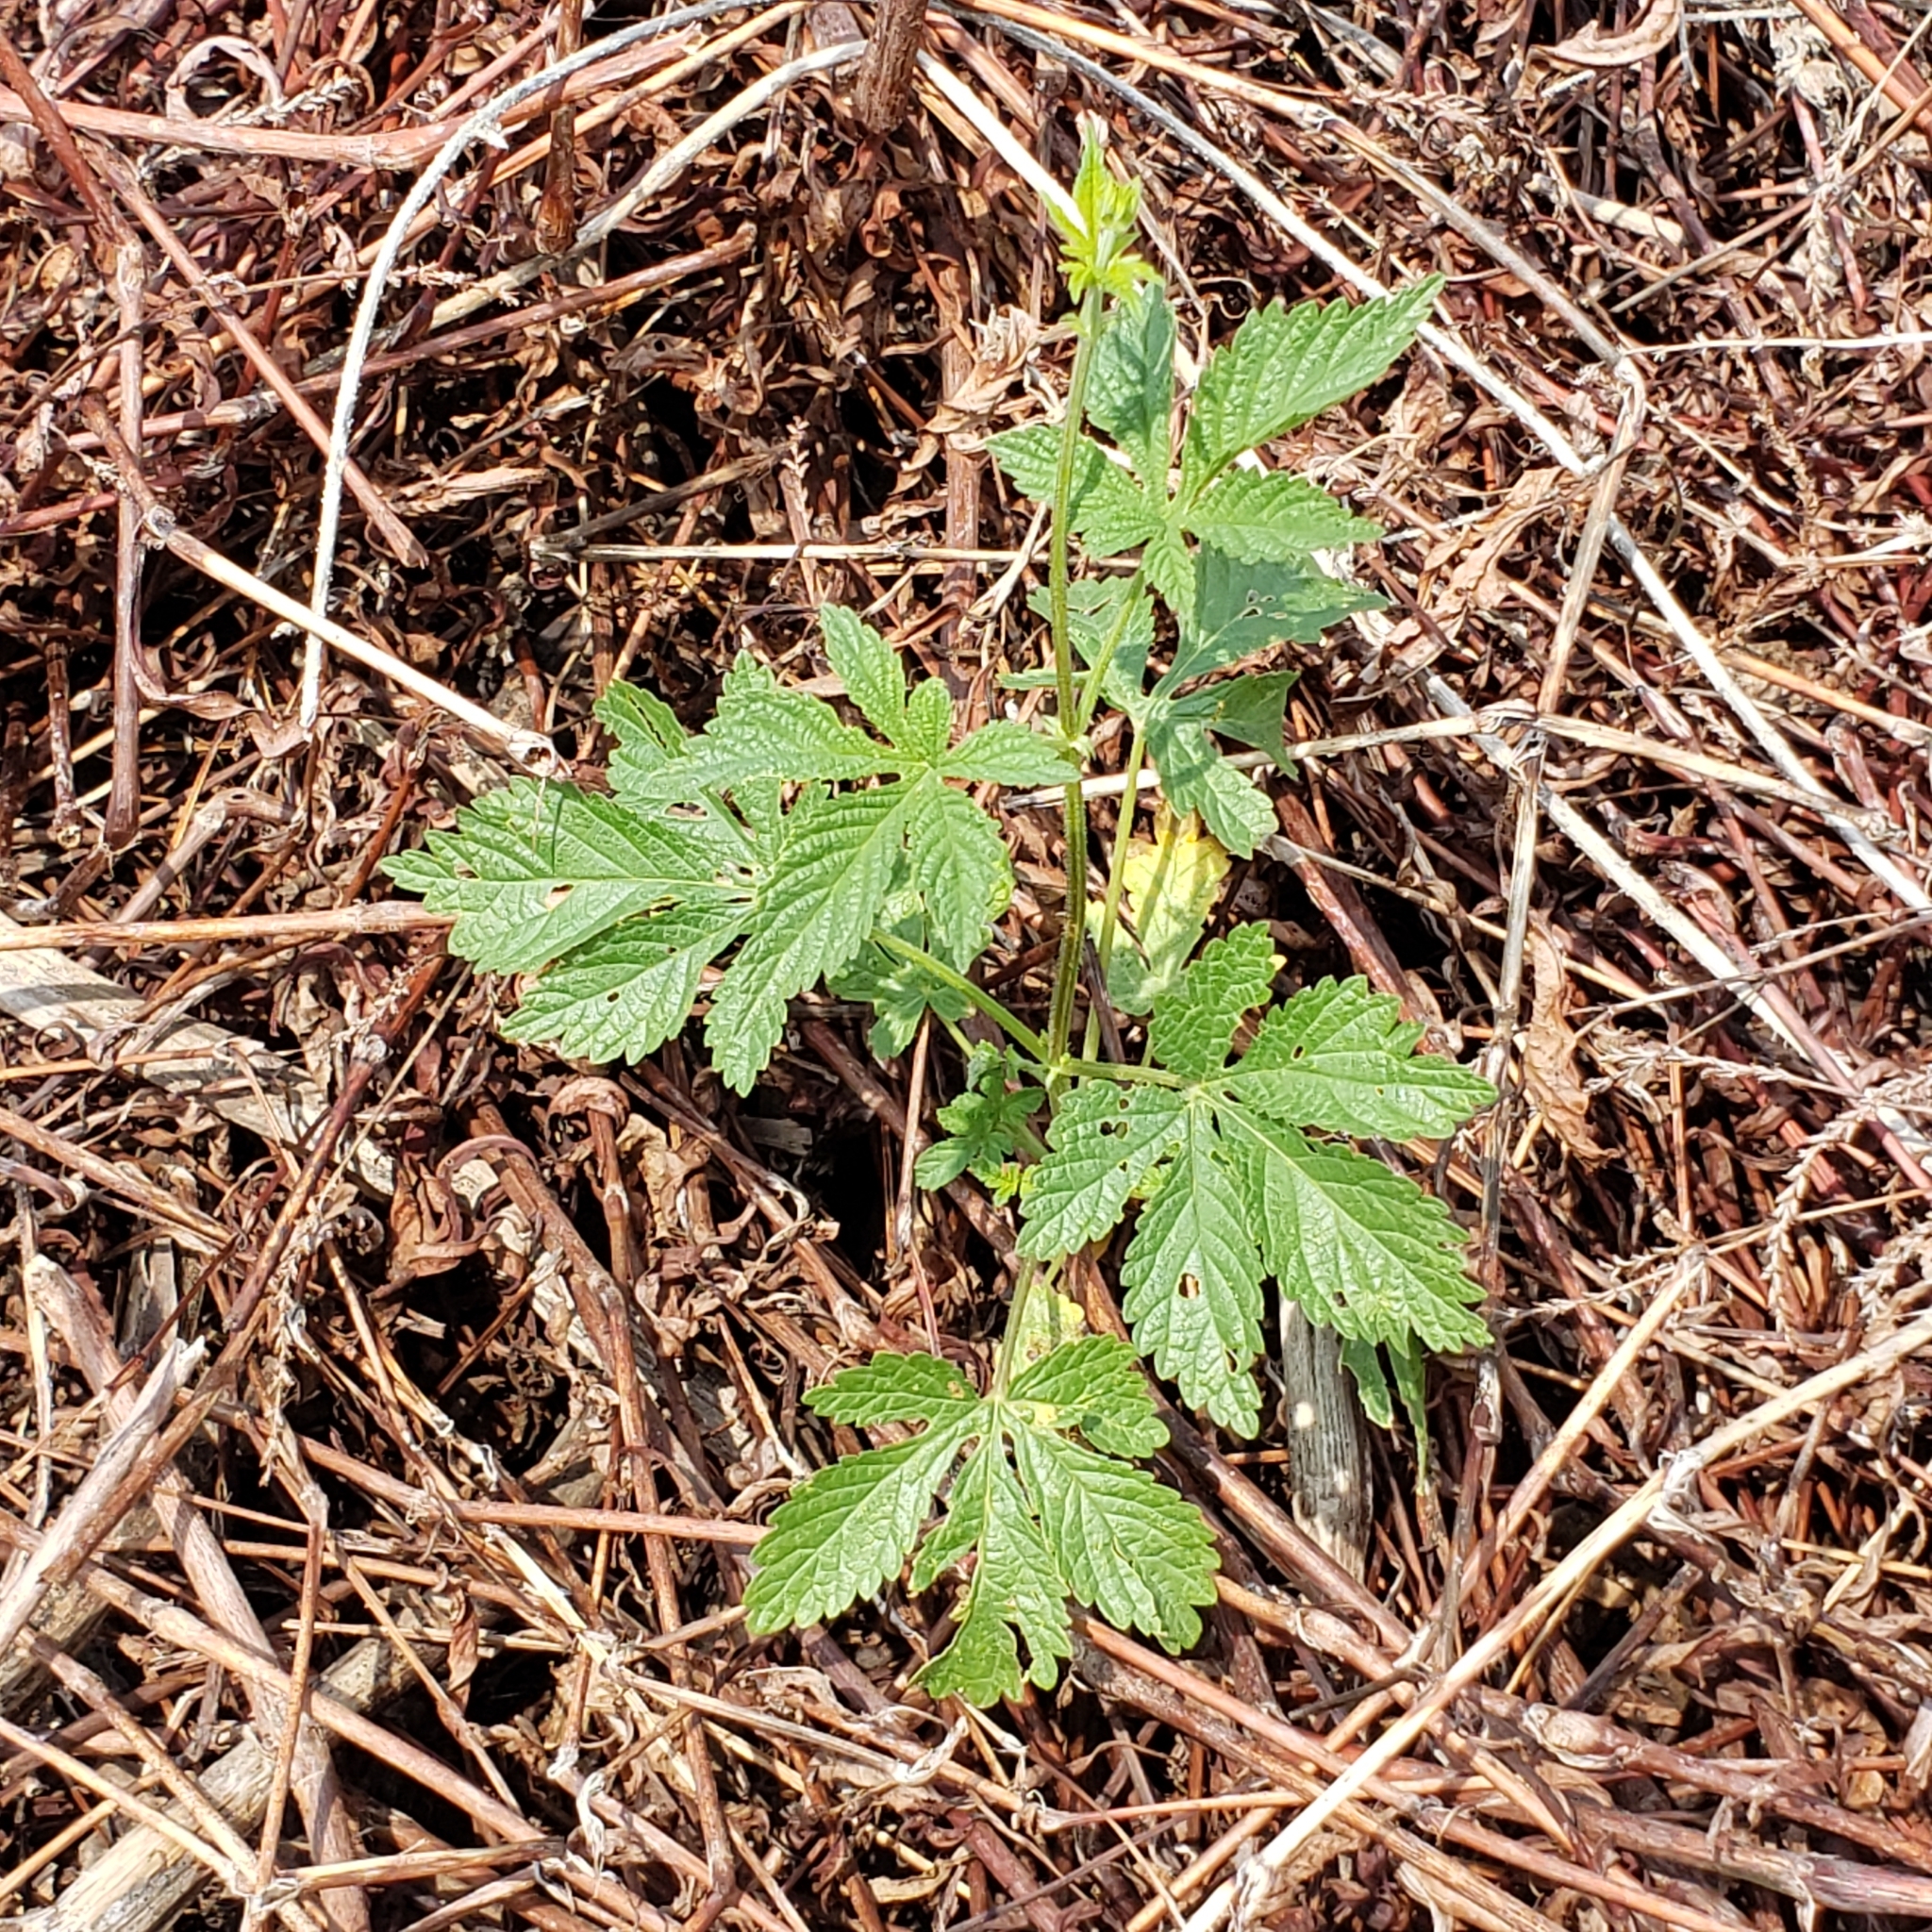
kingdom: Plantae
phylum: Tracheophyta
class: Magnoliopsida
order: Rosales
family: Cannabaceae
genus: Humulus
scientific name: Humulus scandens
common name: Japanese hop
